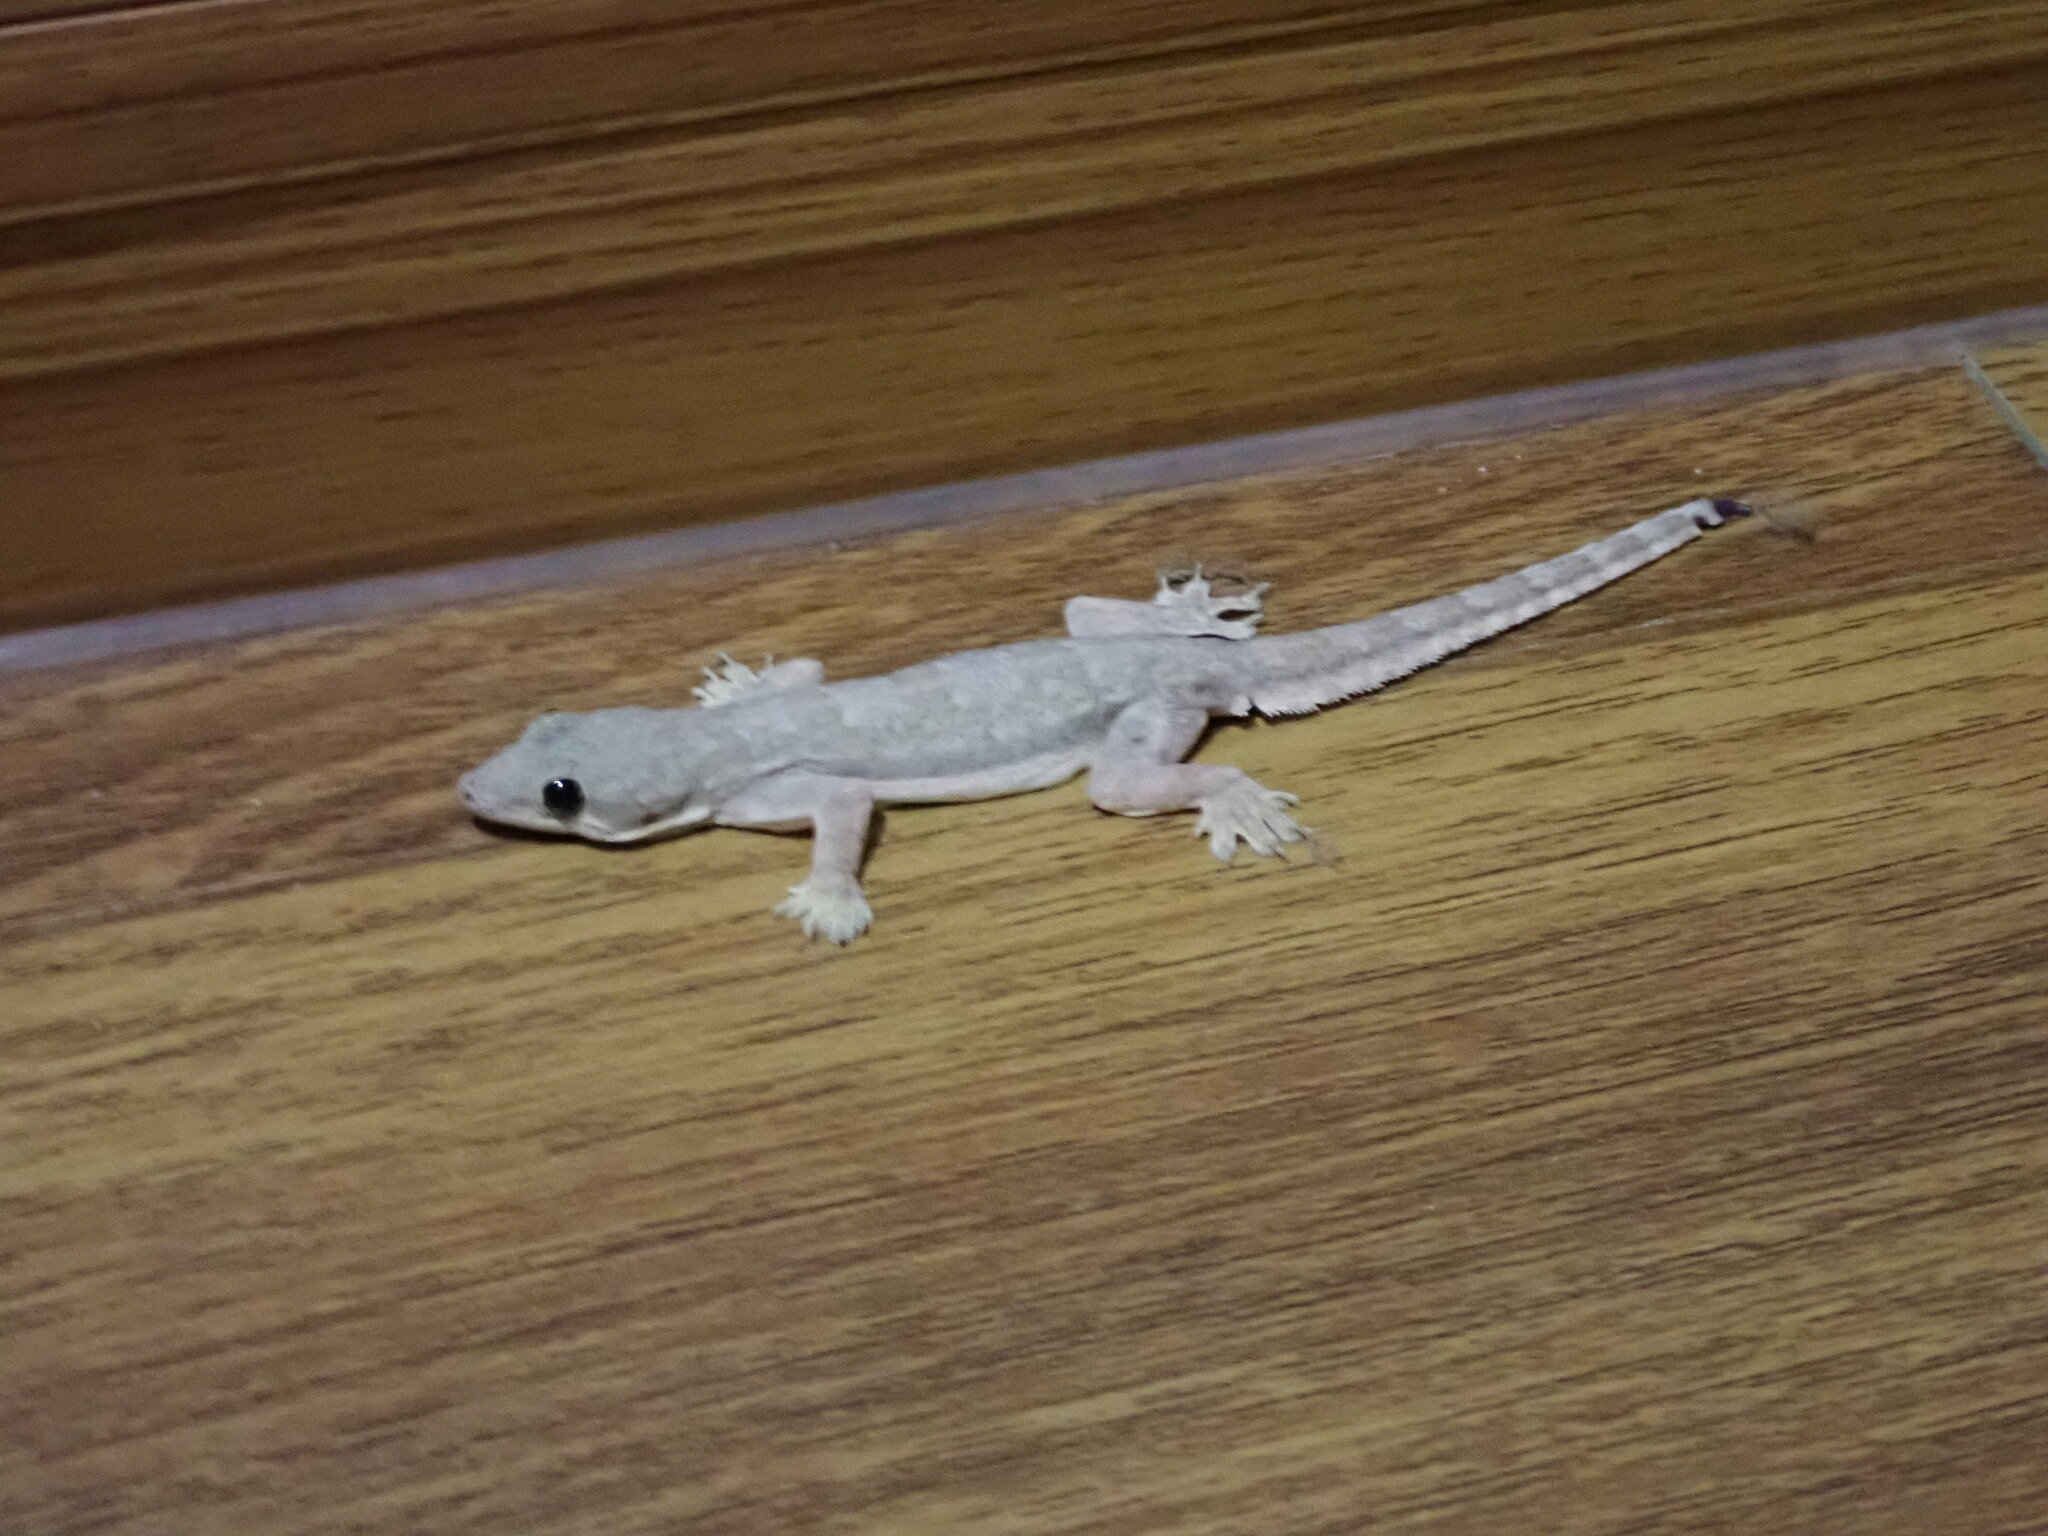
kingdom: Animalia
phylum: Chordata
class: Squamata
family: Gekkonidae
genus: Hemidactylus
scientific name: Hemidactylus platyurus
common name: Flat-tailed house gecko
